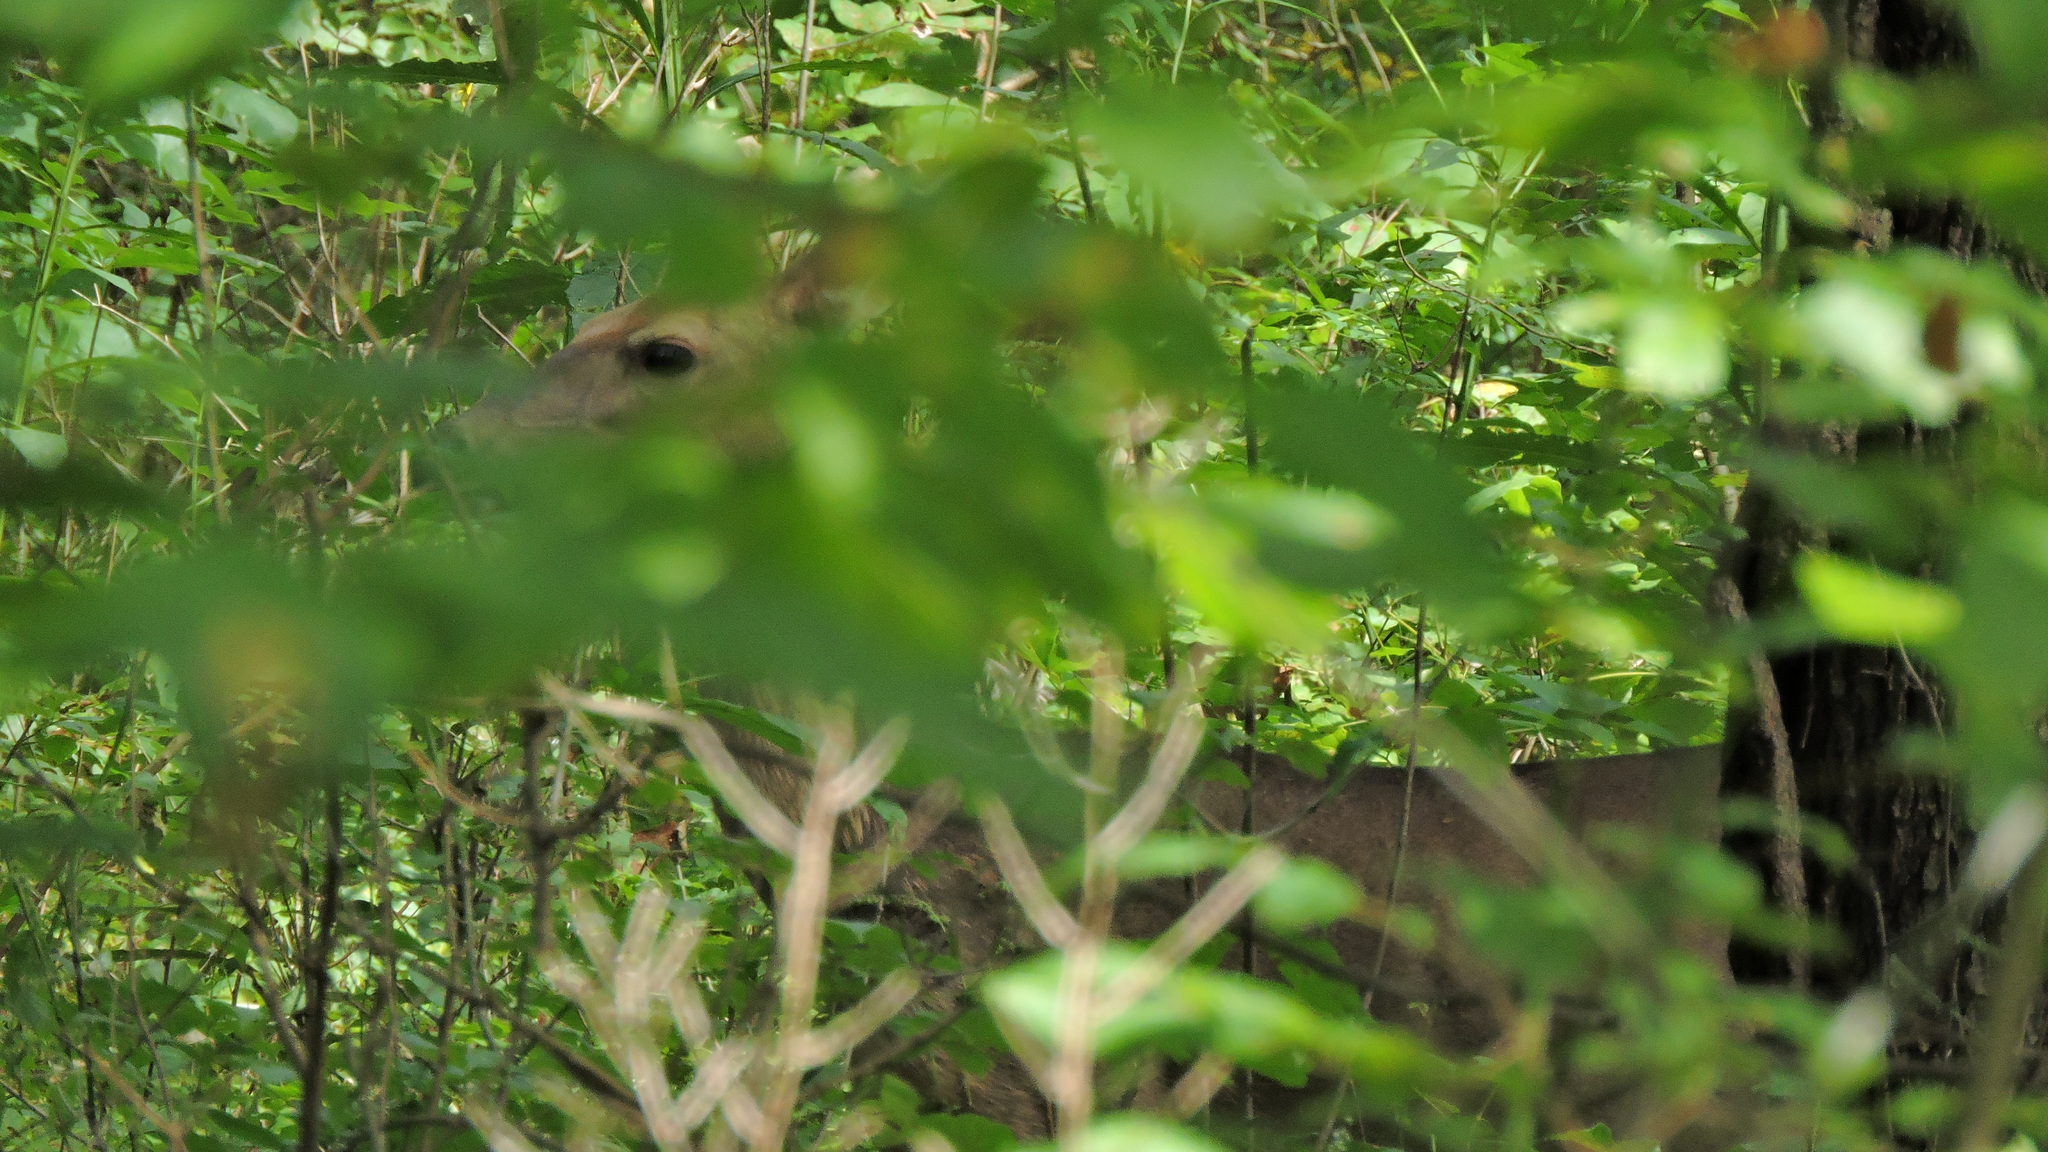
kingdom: Animalia
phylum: Chordata
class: Mammalia
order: Artiodactyla
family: Cervidae
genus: Odocoileus
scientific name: Odocoileus virginianus
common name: White-tailed deer
